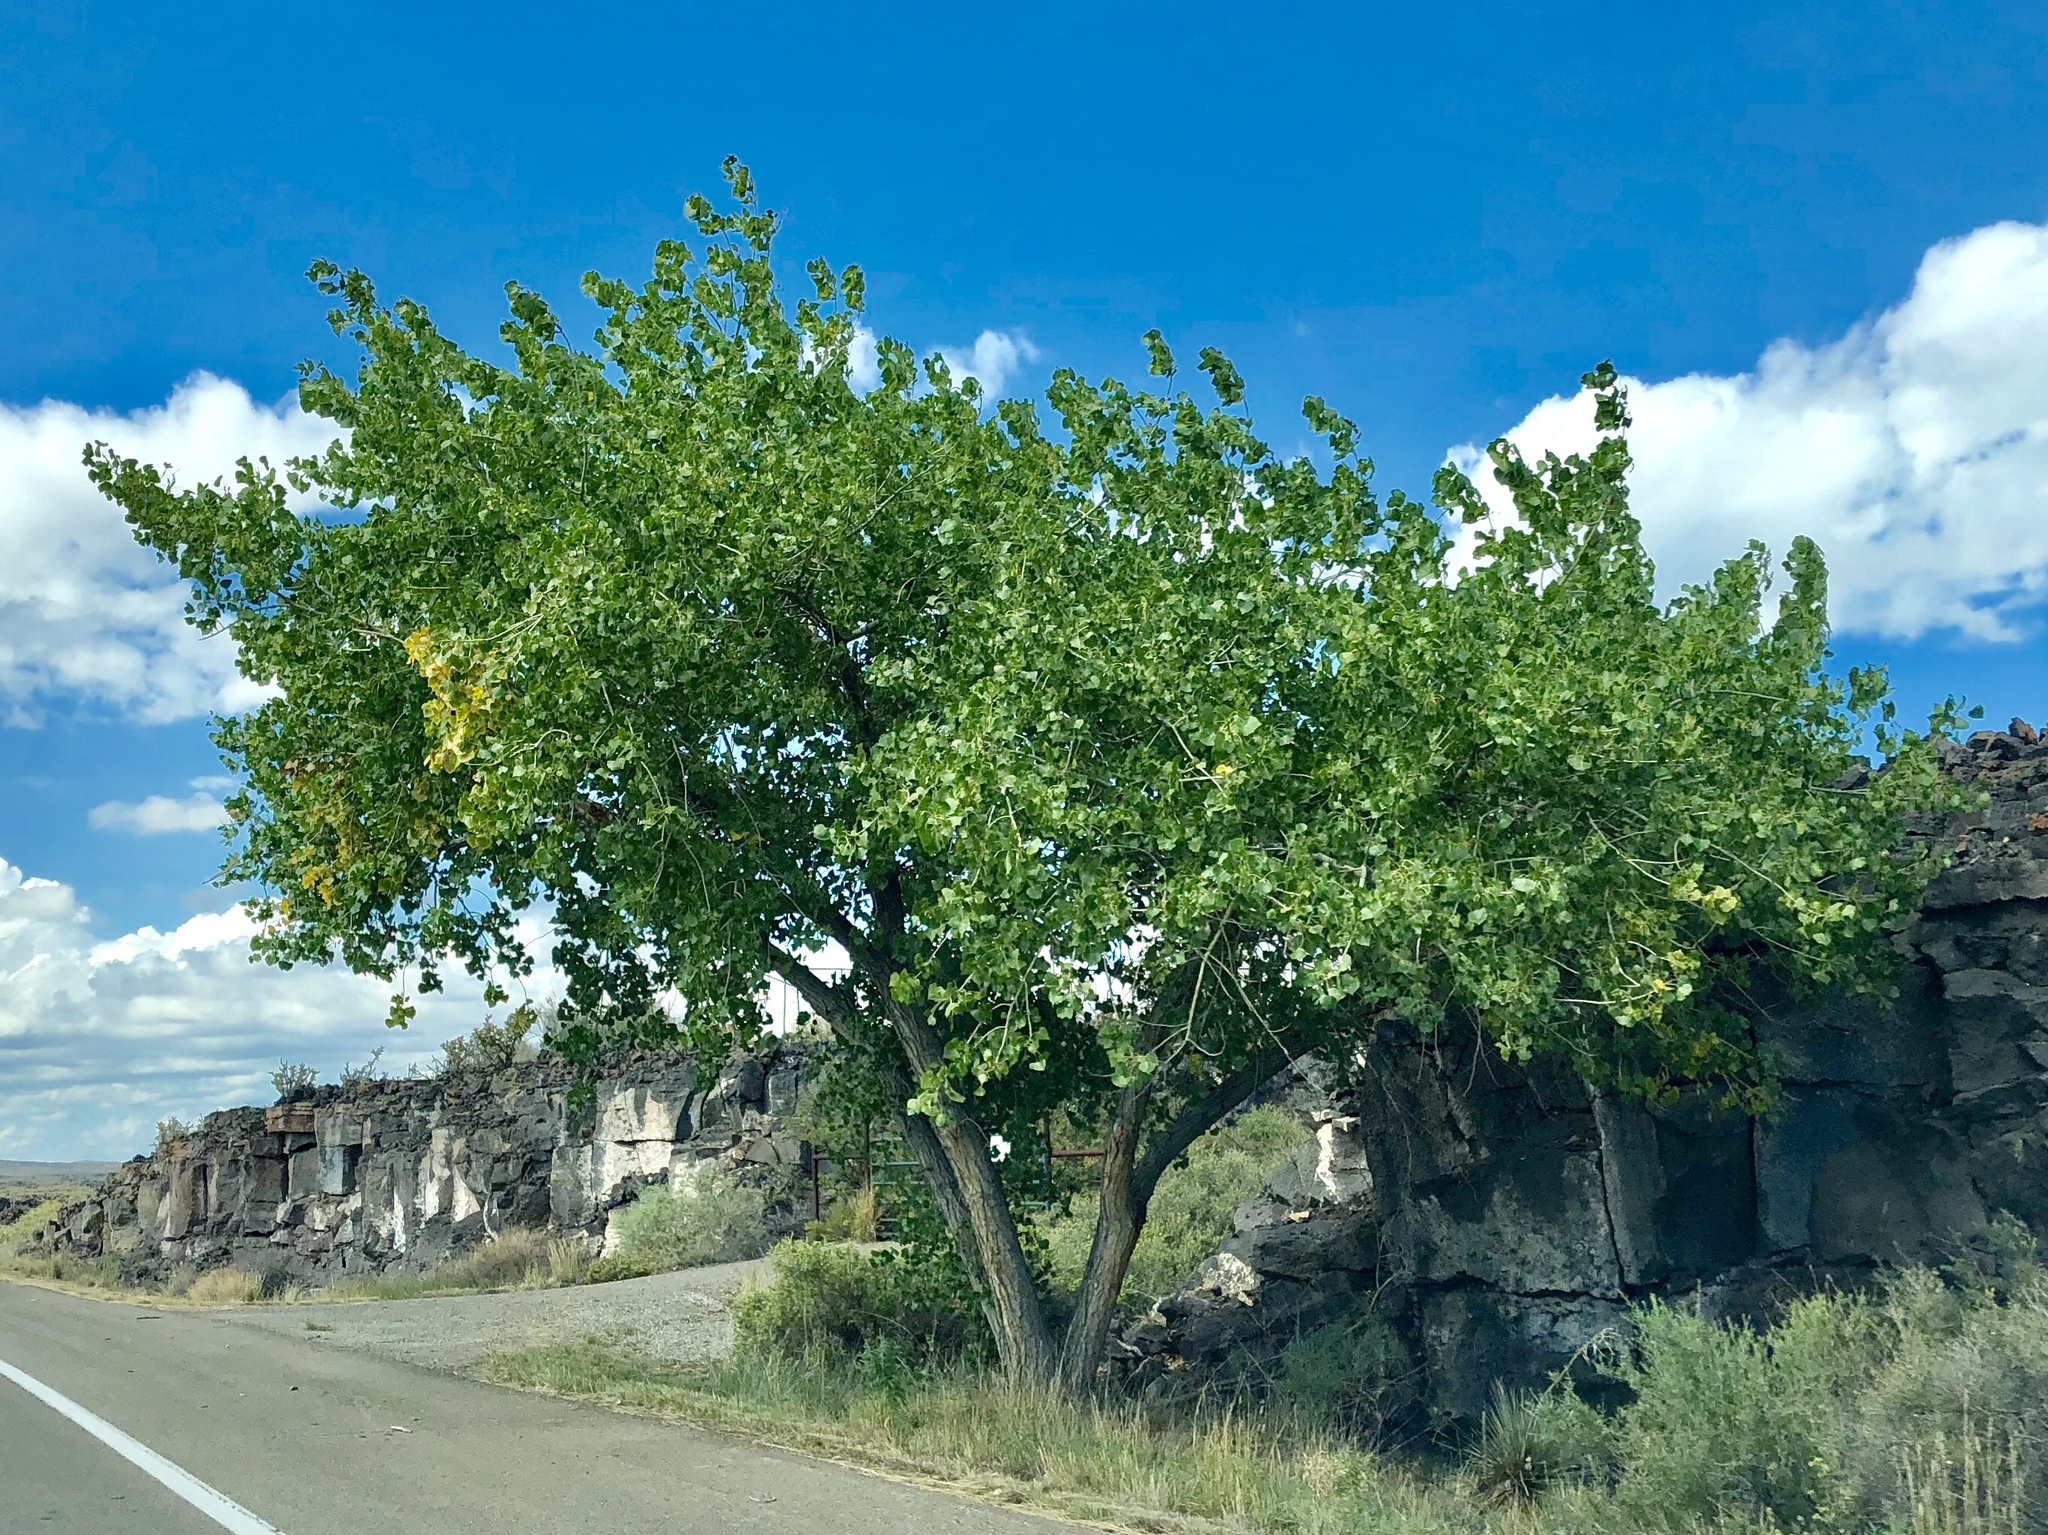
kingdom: Plantae
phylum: Tracheophyta
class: Magnoliopsida
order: Malpighiales
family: Salicaceae
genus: Populus
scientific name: Populus fremontii
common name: Fremont's cottonwood
